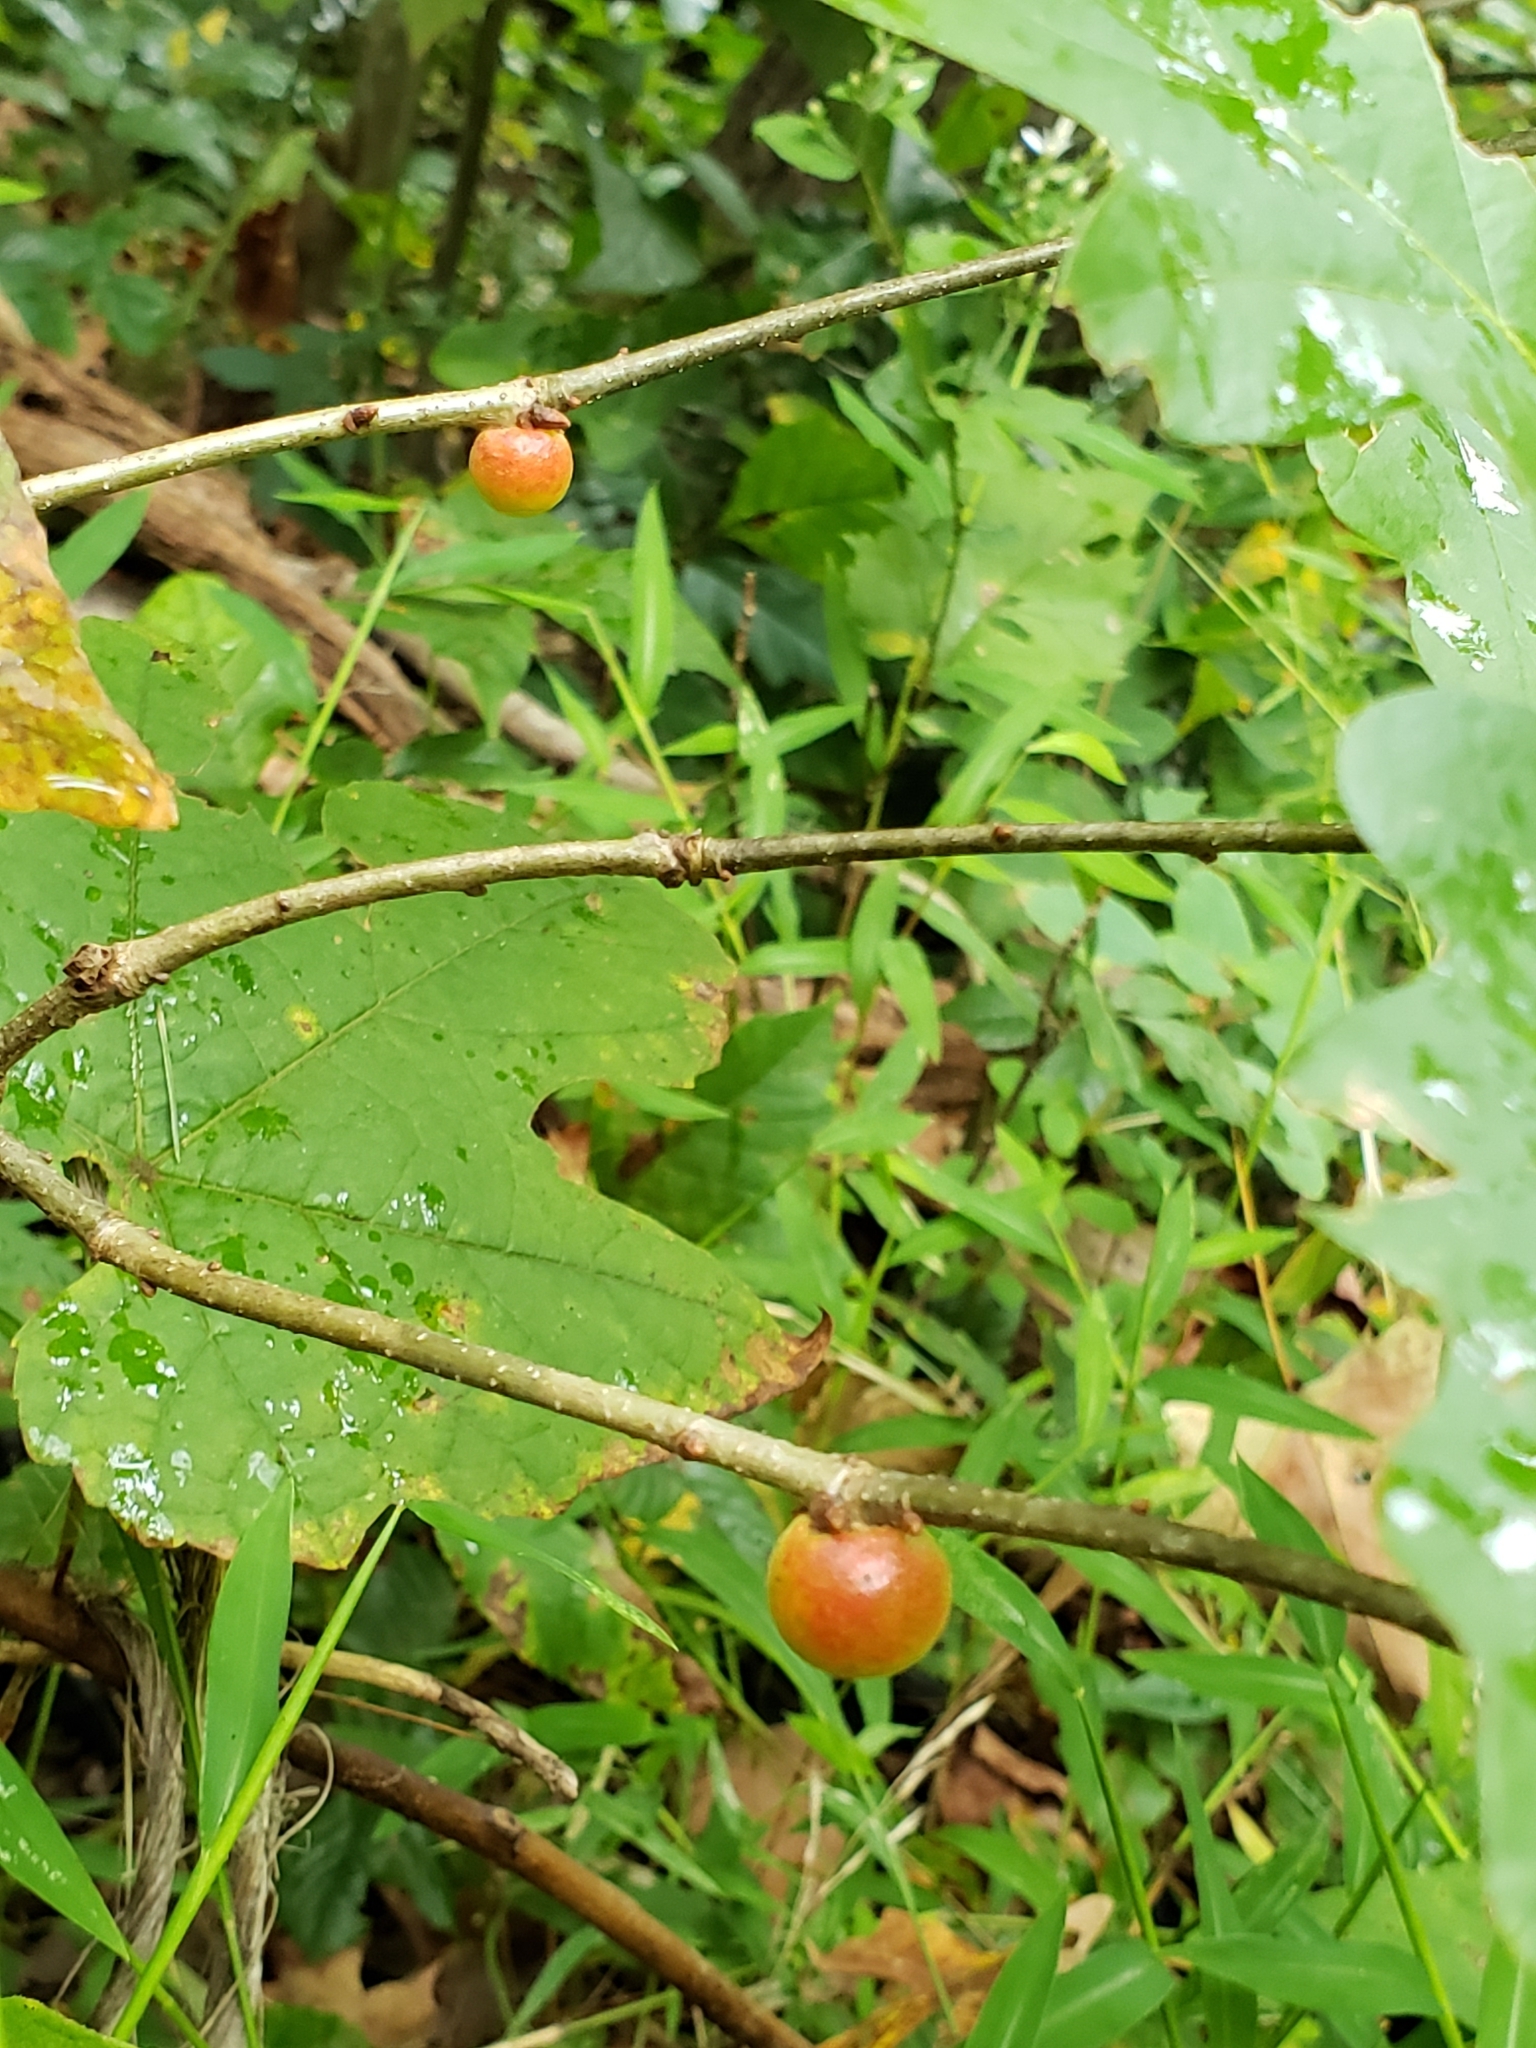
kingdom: Animalia
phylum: Arthropoda
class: Insecta
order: Hymenoptera
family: Cynipidae
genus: Disholcaspis
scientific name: Disholcaspis quercusglobulus
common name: Round bullet gall wasp
